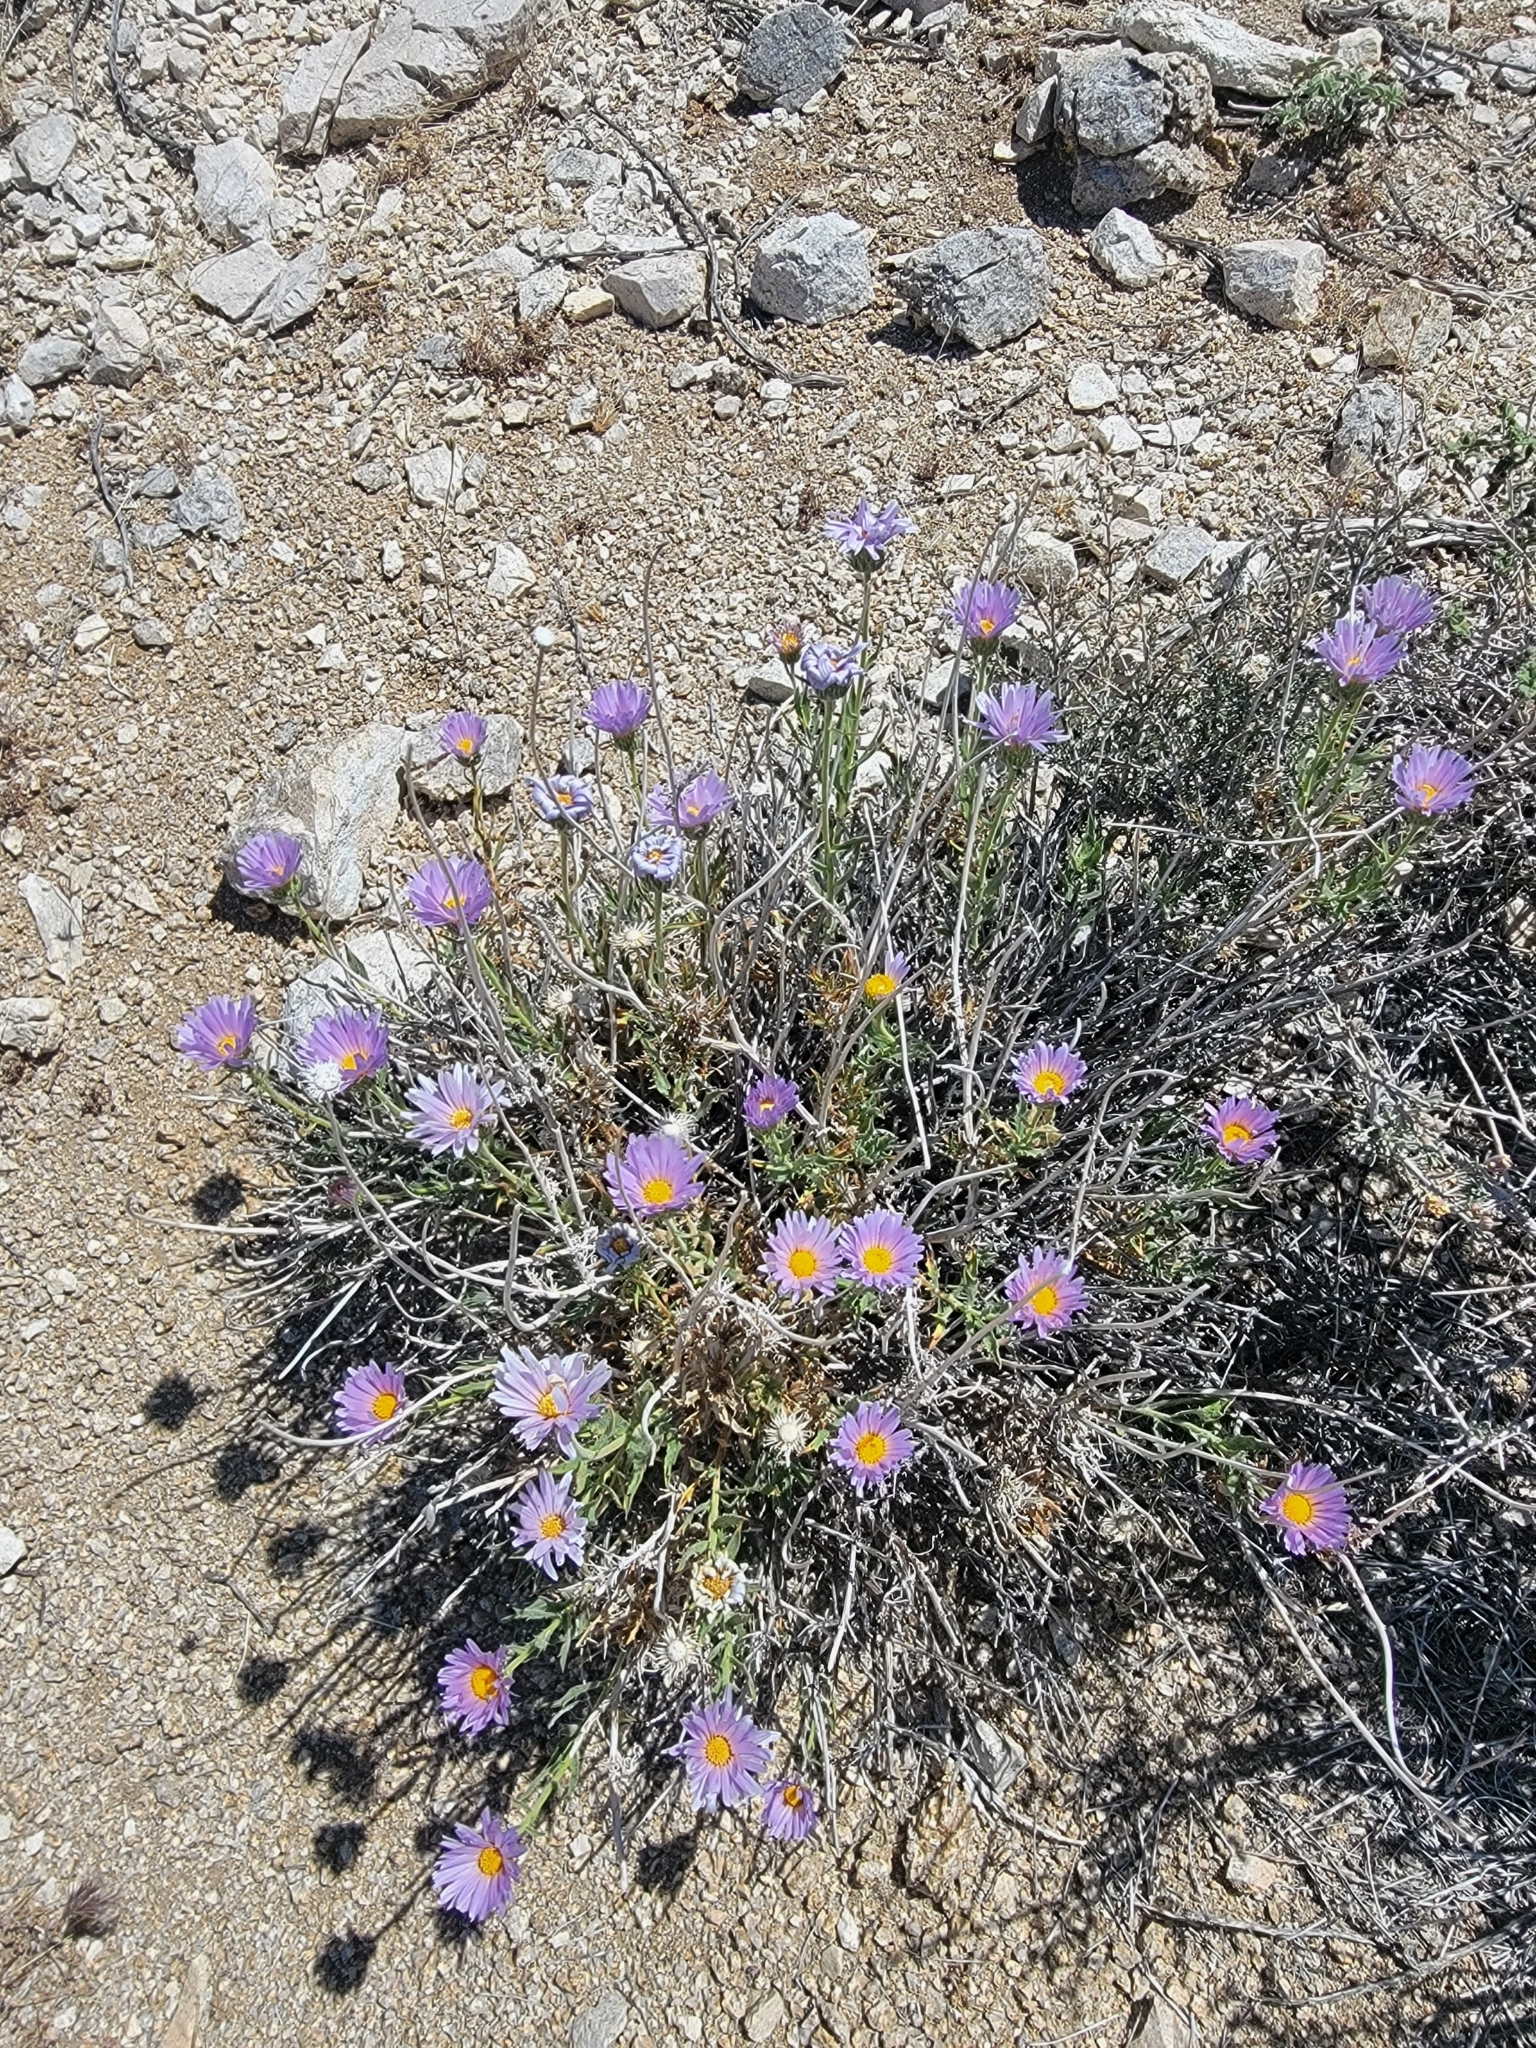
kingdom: Plantae
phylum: Tracheophyta
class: Magnoliopsida
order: Asterales
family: Asteraceae
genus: Xylorhiza
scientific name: Xylorhiza tortifolia
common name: Hurt-leaf woody-aster
